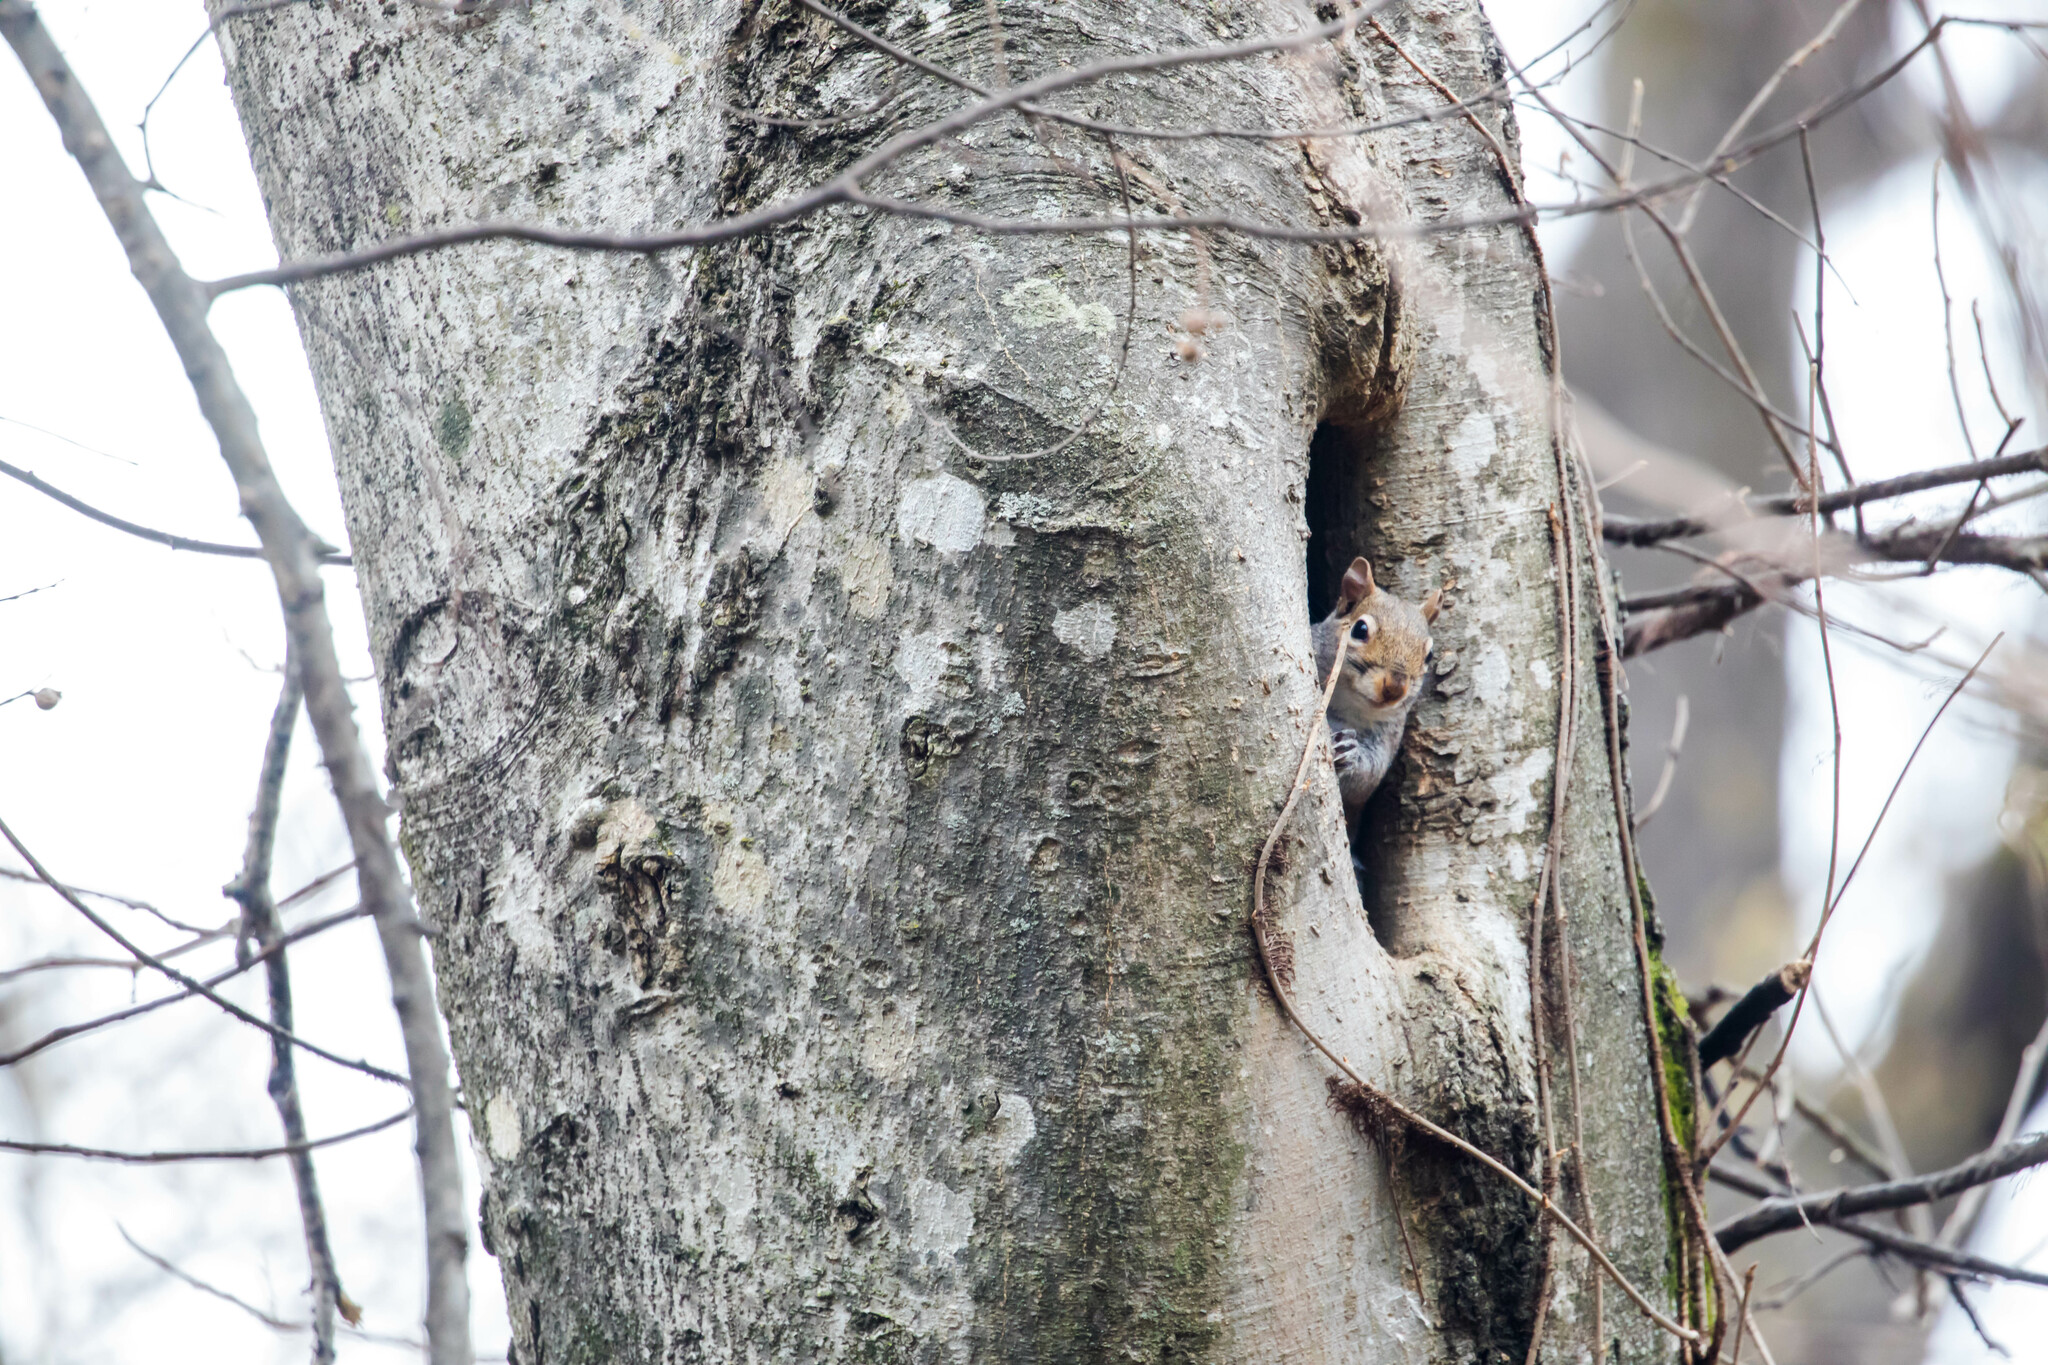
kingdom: Animalia
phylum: Chordata
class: Mammalia
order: Rodentia
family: Sciuridae
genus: Sciurus
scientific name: Sciurus carolinensis
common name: Eastern gray squirrel
